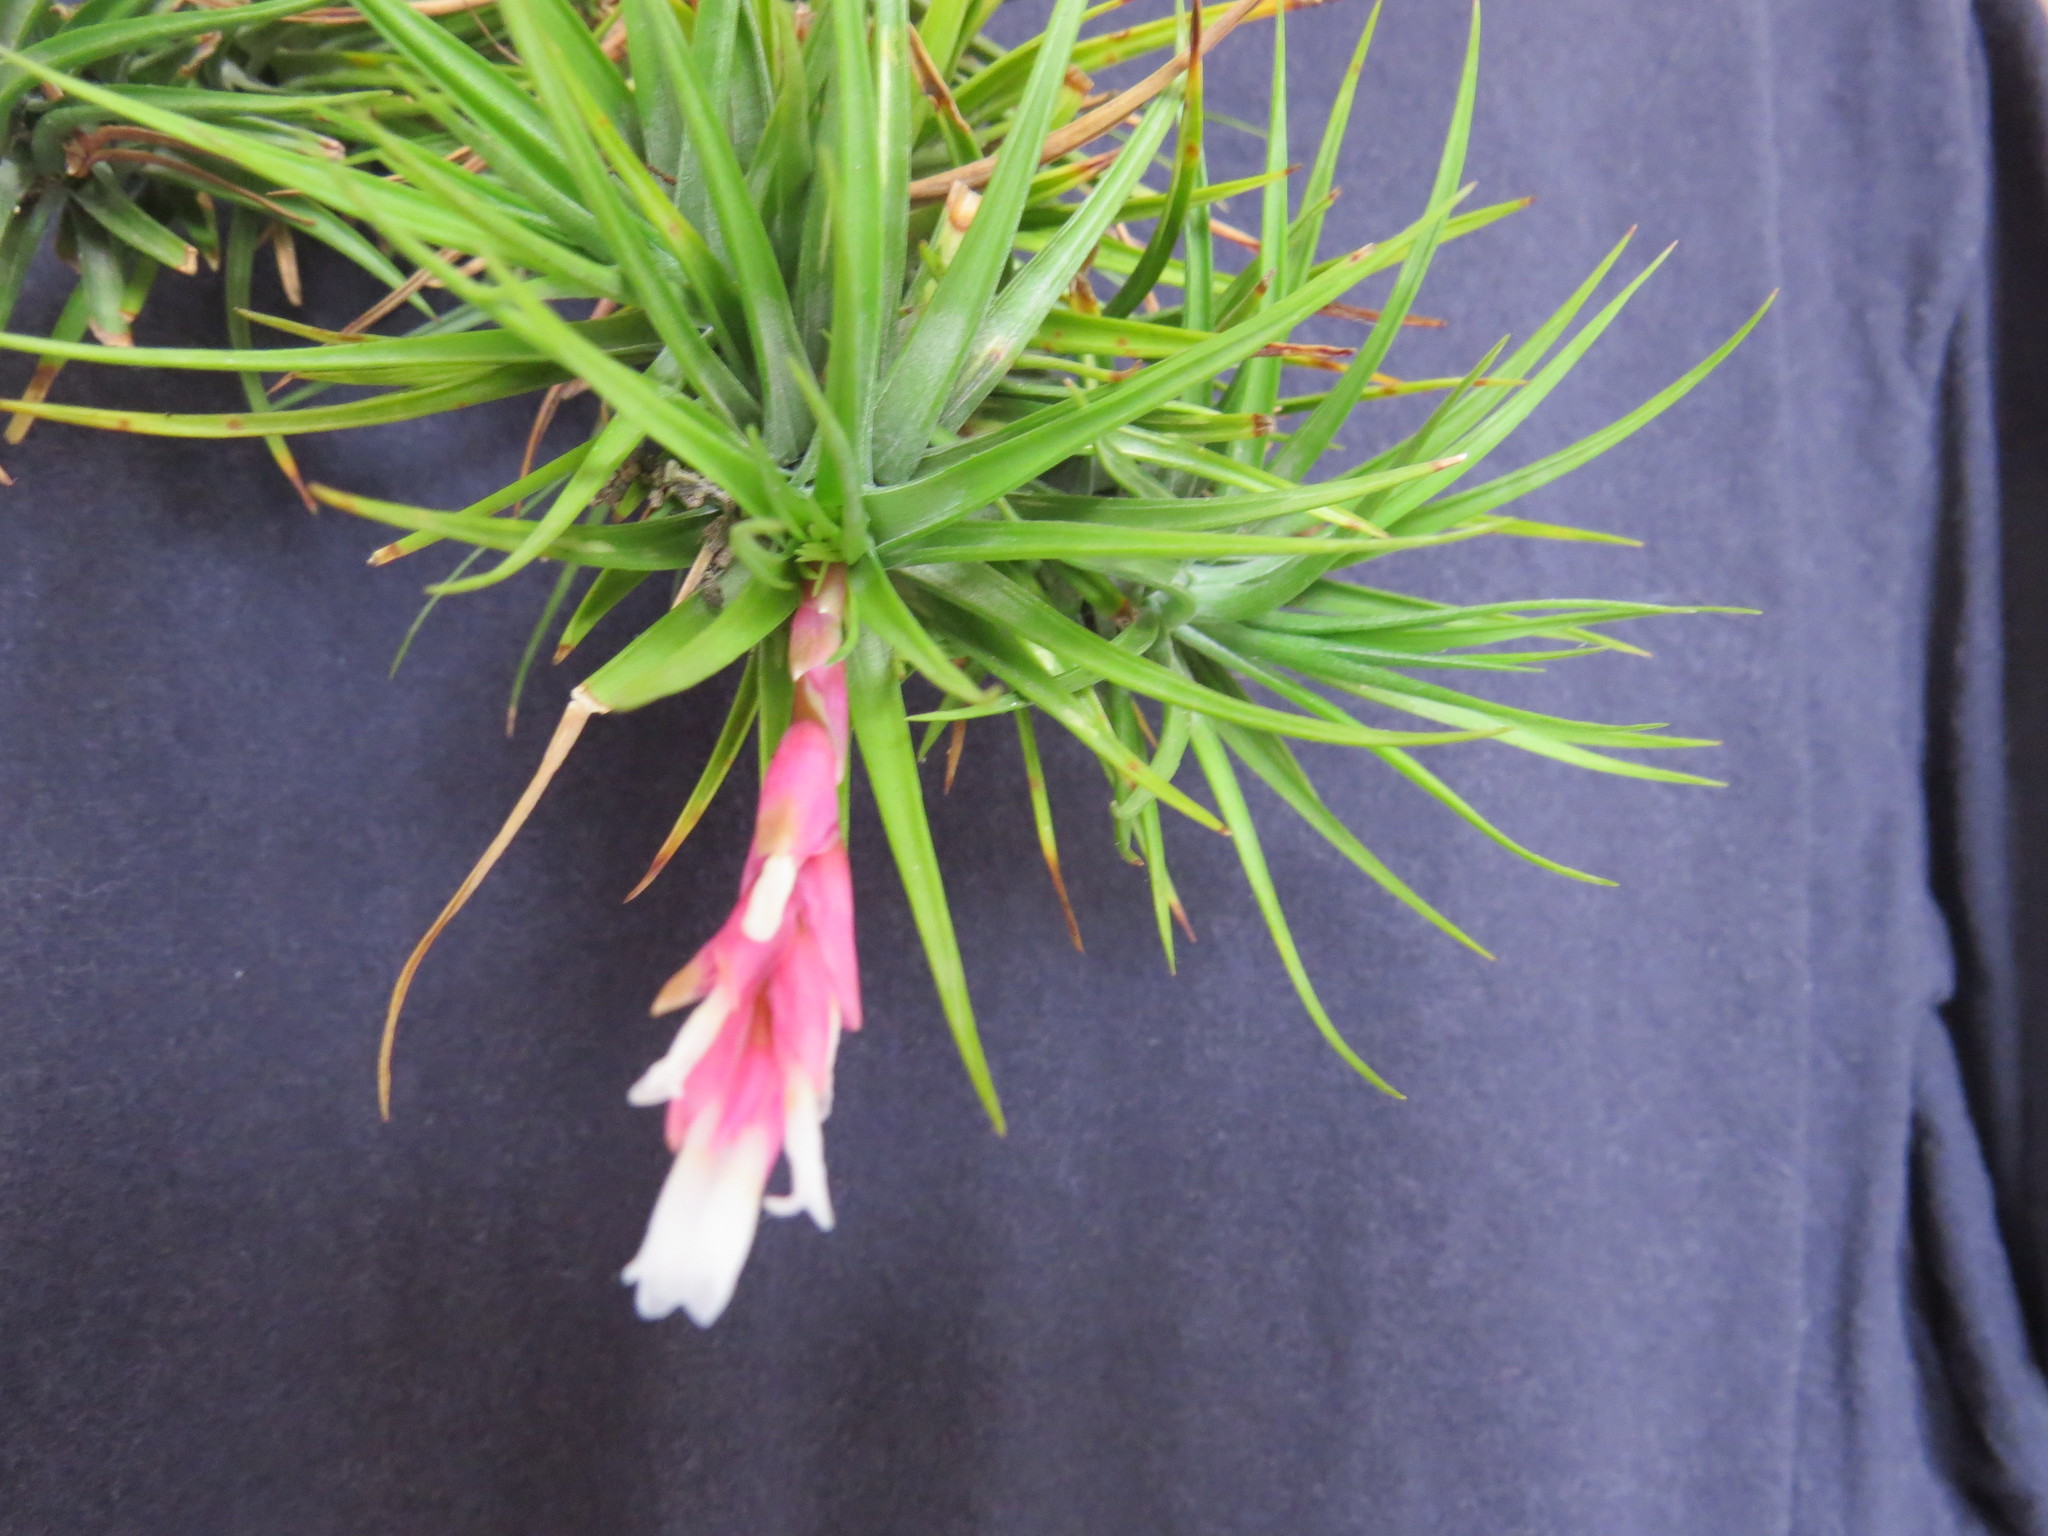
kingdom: Plantae
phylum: Tracheophyta
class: Liliopsida
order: Poales
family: Bromeliaceae
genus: Tillandsia
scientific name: Tillandsia tenuifolia
